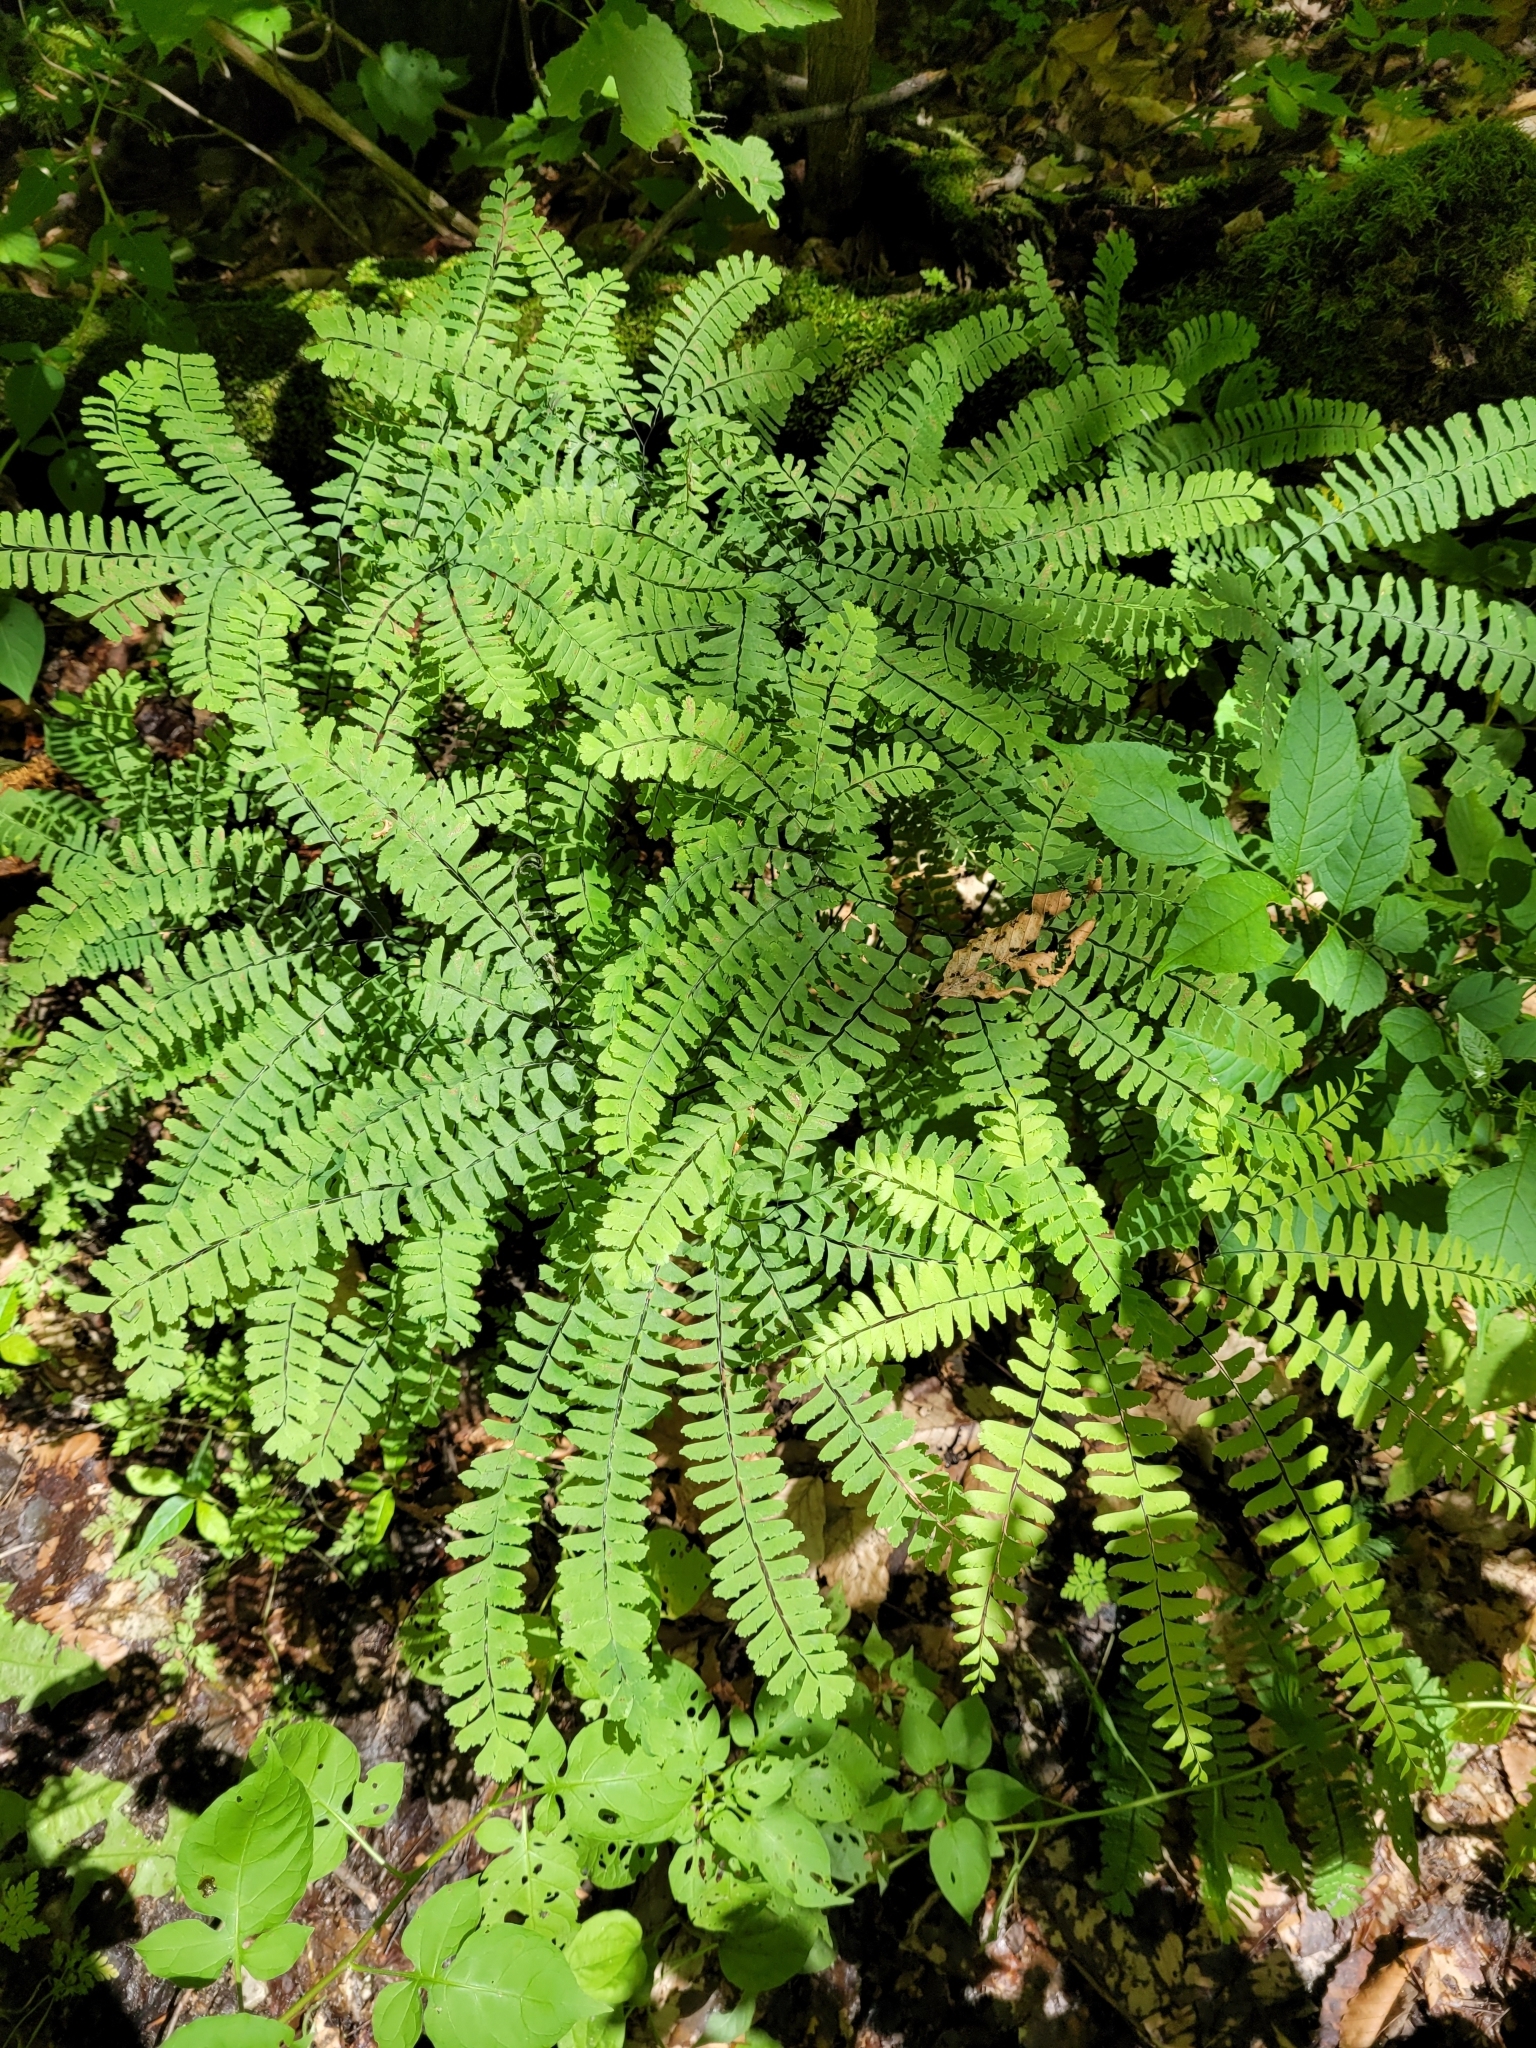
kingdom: Plantae
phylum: Tracheophyta
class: Polypodiopsida
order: Polypodiales
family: Pteridaceae
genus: Adiantum
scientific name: Adiantum pedatum
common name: Five-finger fern
